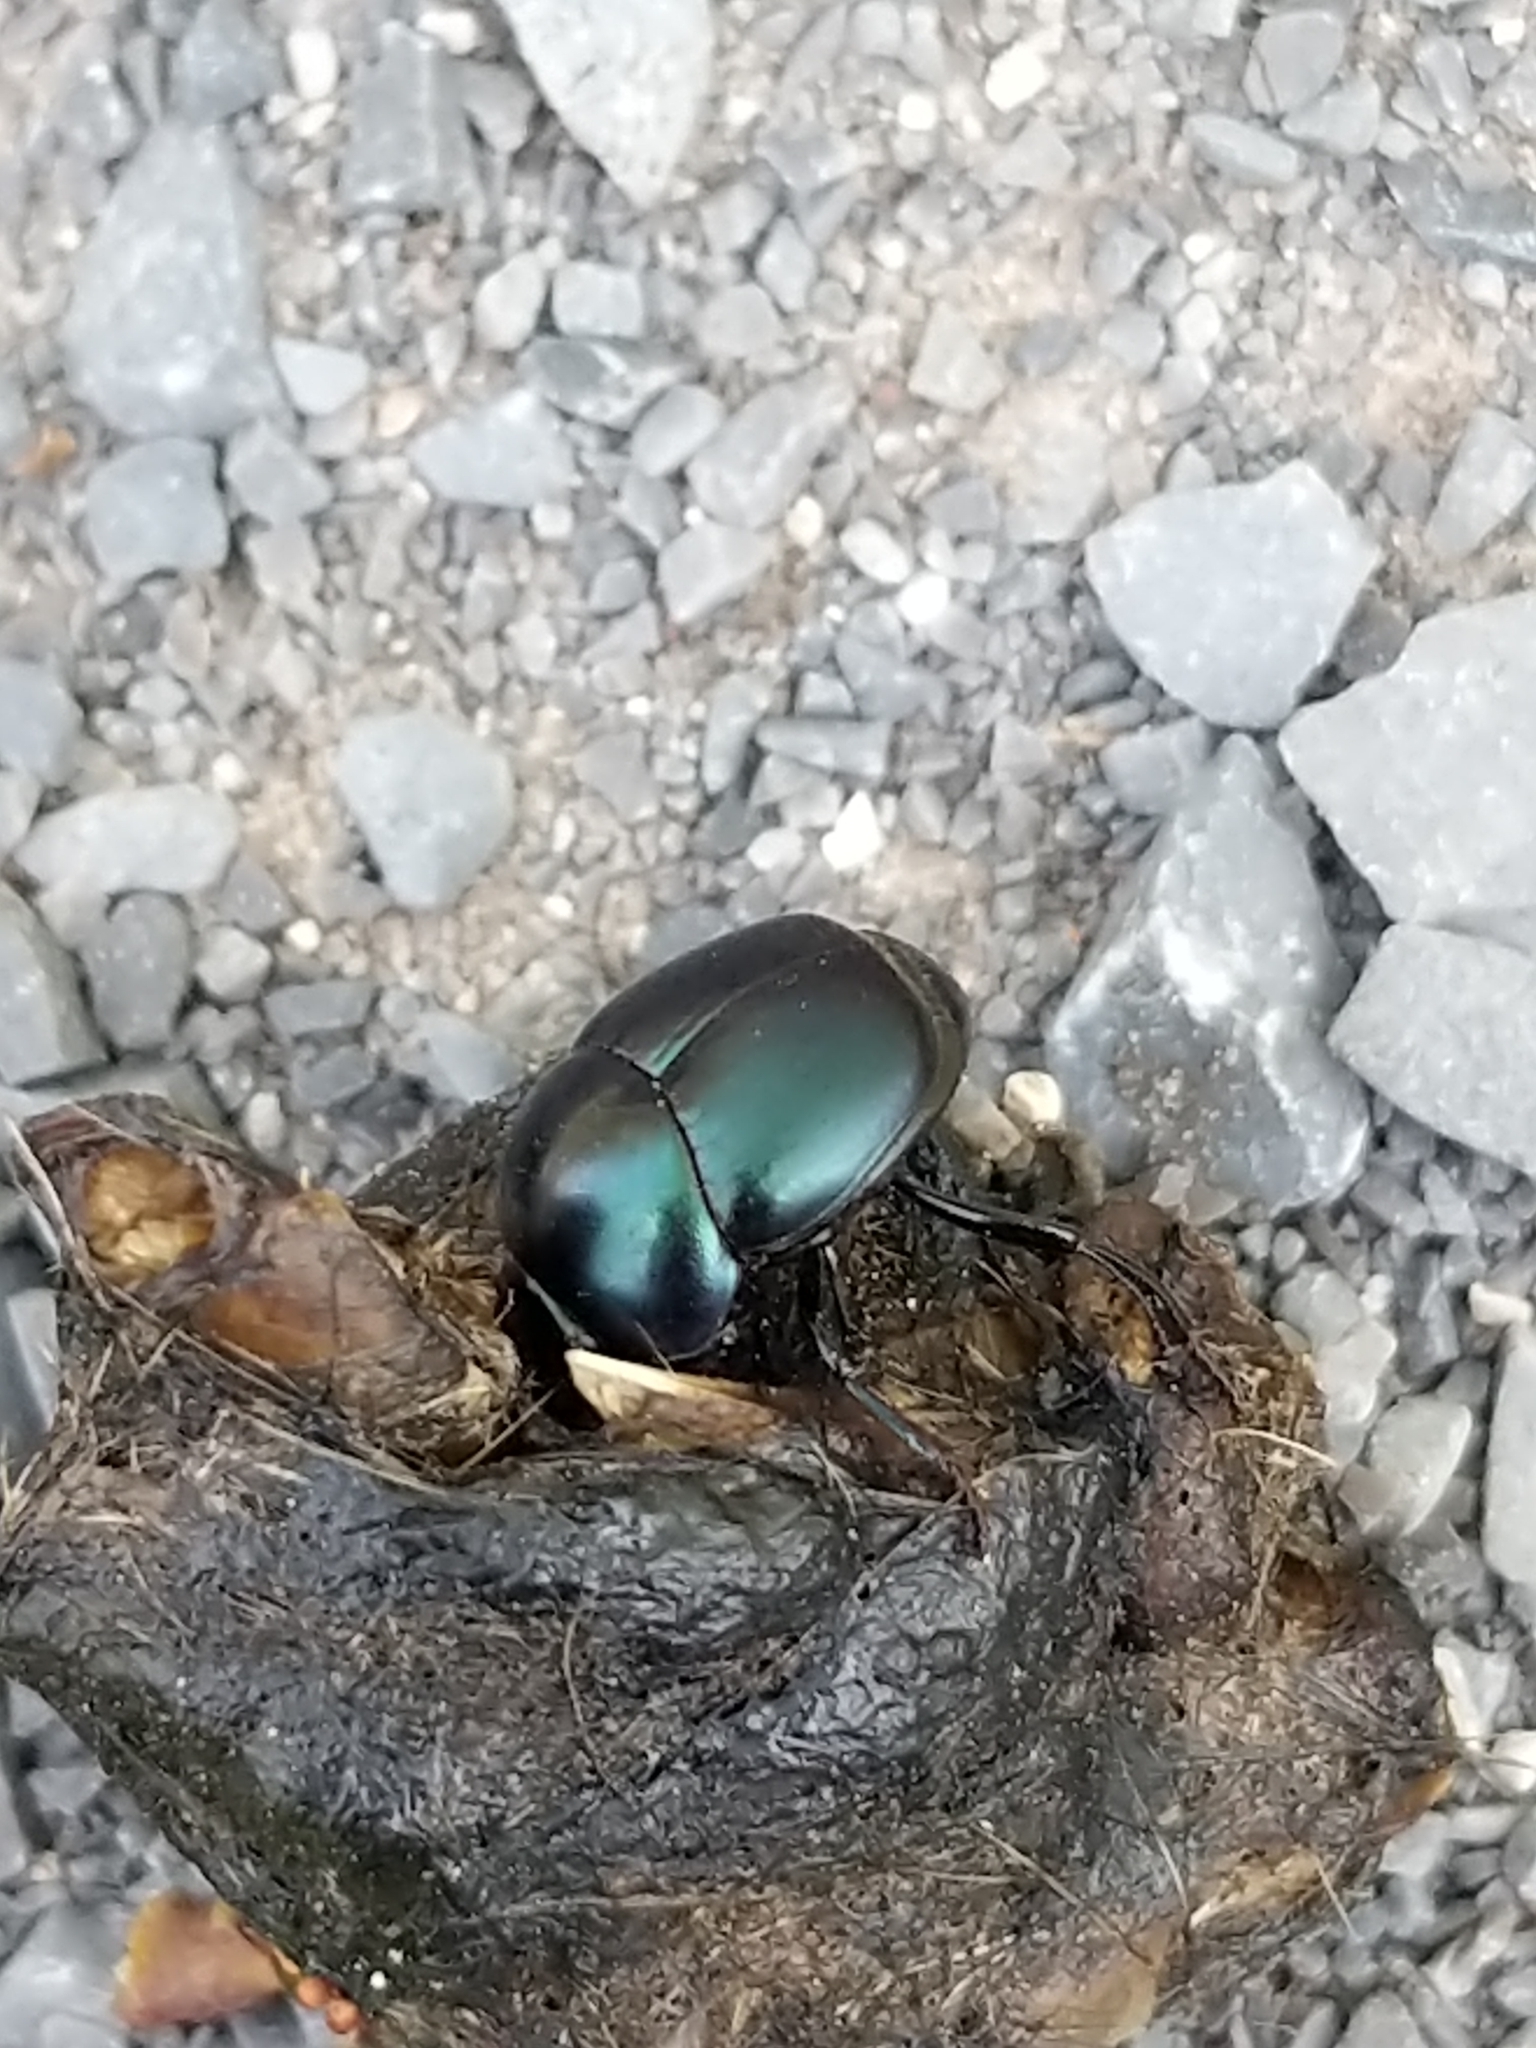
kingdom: Animalia
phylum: Arthropoda
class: Insecta
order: Coleoptera
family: Scarabaeidae
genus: Canthon
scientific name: Canthon cyanellus
